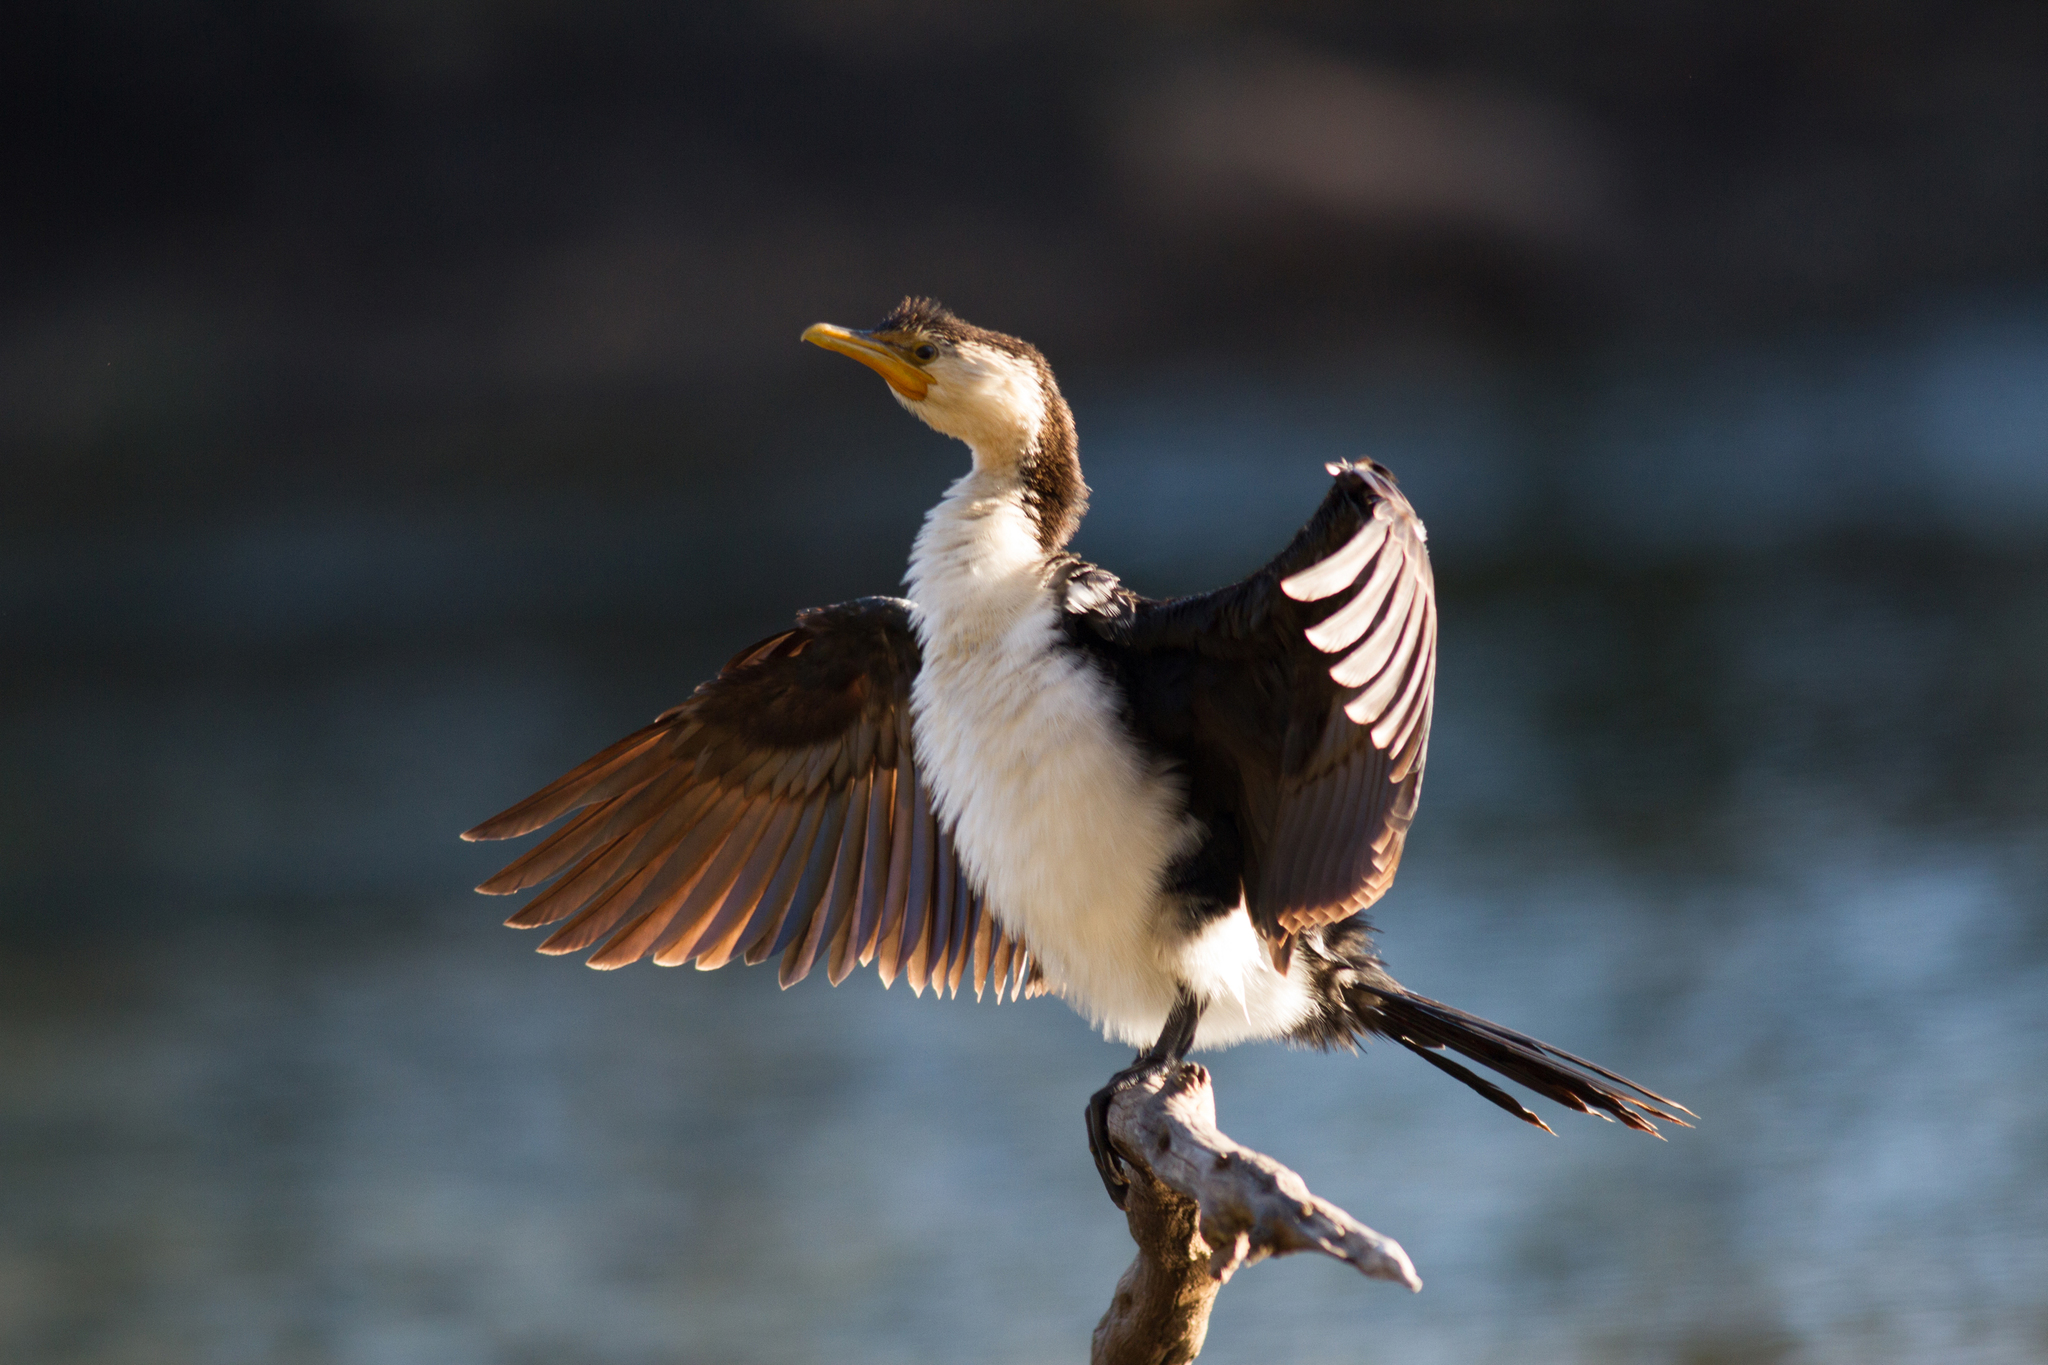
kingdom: Animalia
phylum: Chordata
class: Aves
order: Suliformes
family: Phalacrocoracidae
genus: Microcarbo
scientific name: Microcarbo melanoleucos
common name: Little pied cormorant
